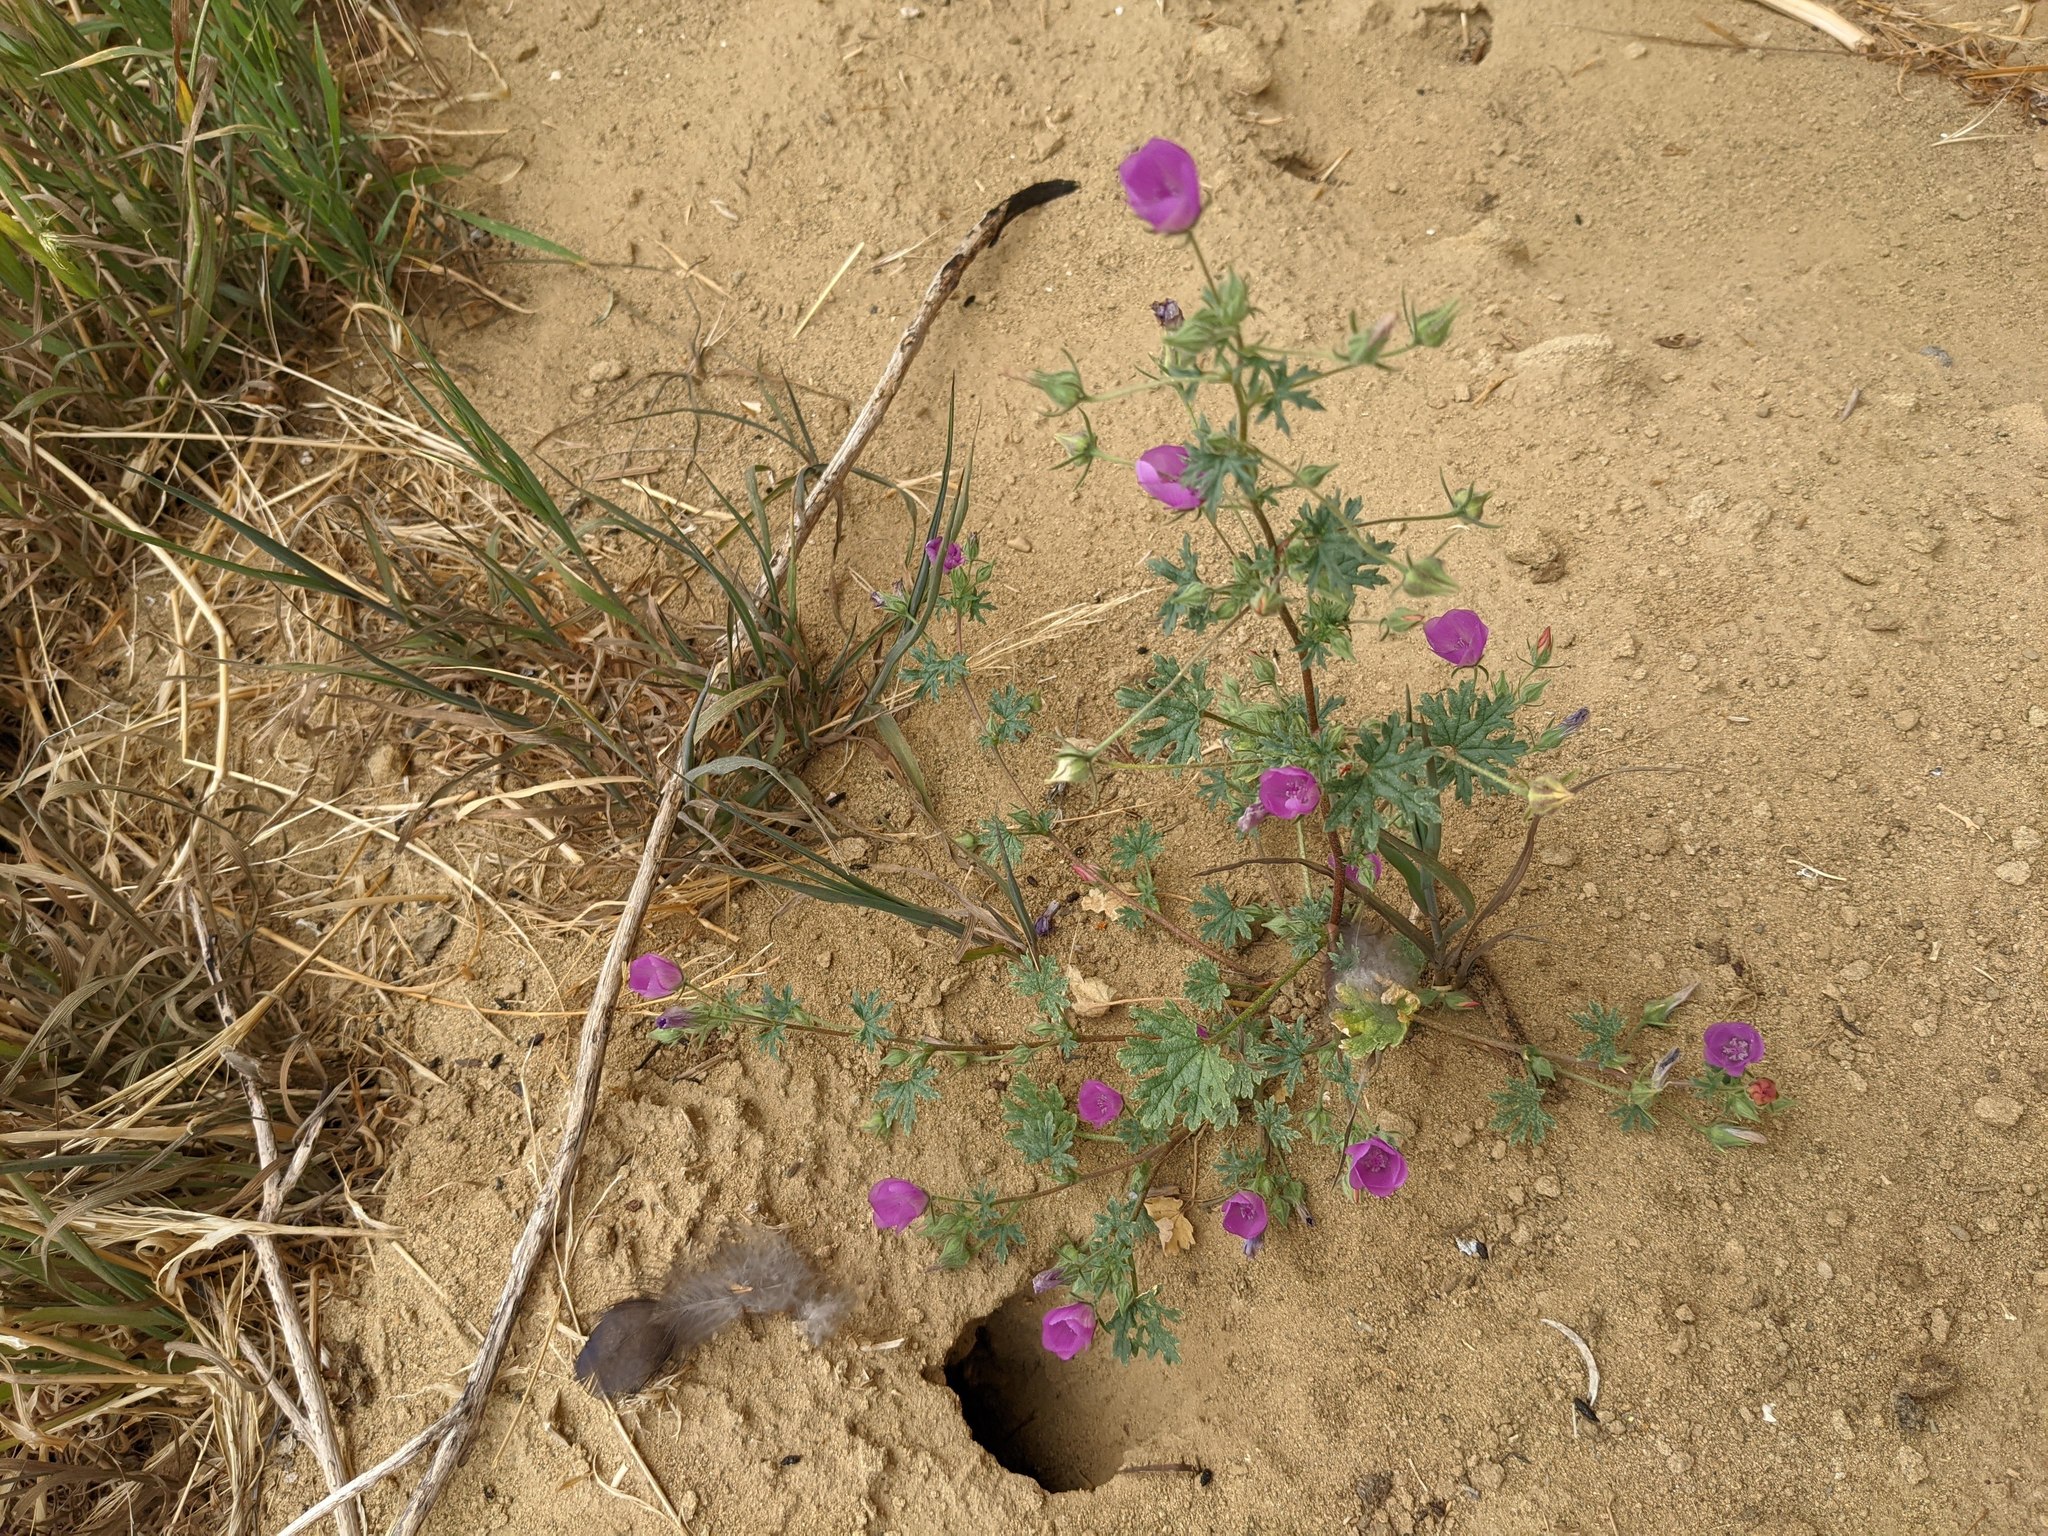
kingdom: Plantae
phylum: Tracheophyta
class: Magnoliopsida
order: Malvales
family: Malvaceae
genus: Eremalche
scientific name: Eremalche parryi
